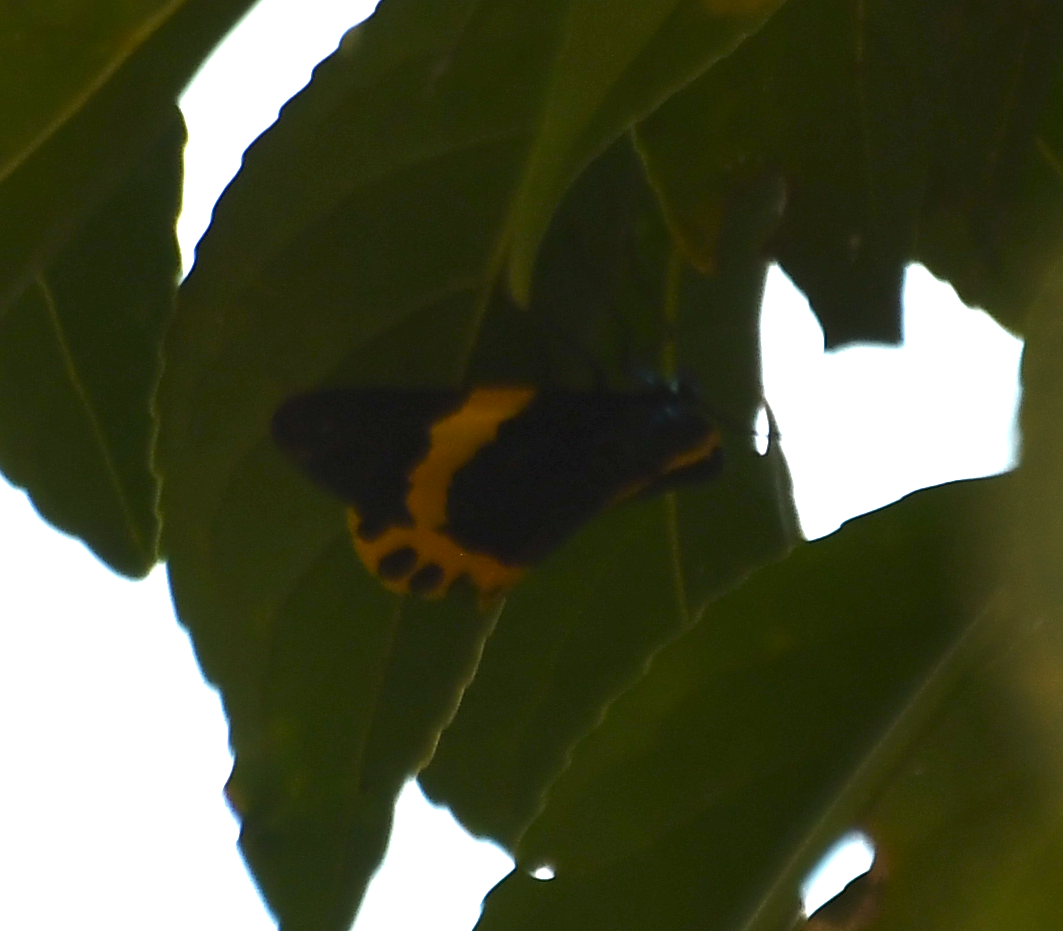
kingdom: Animalia
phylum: Arthropoda
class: Insecta
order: Lepidoptera
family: Geometridae
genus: Milionia
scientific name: Milionia basalis
